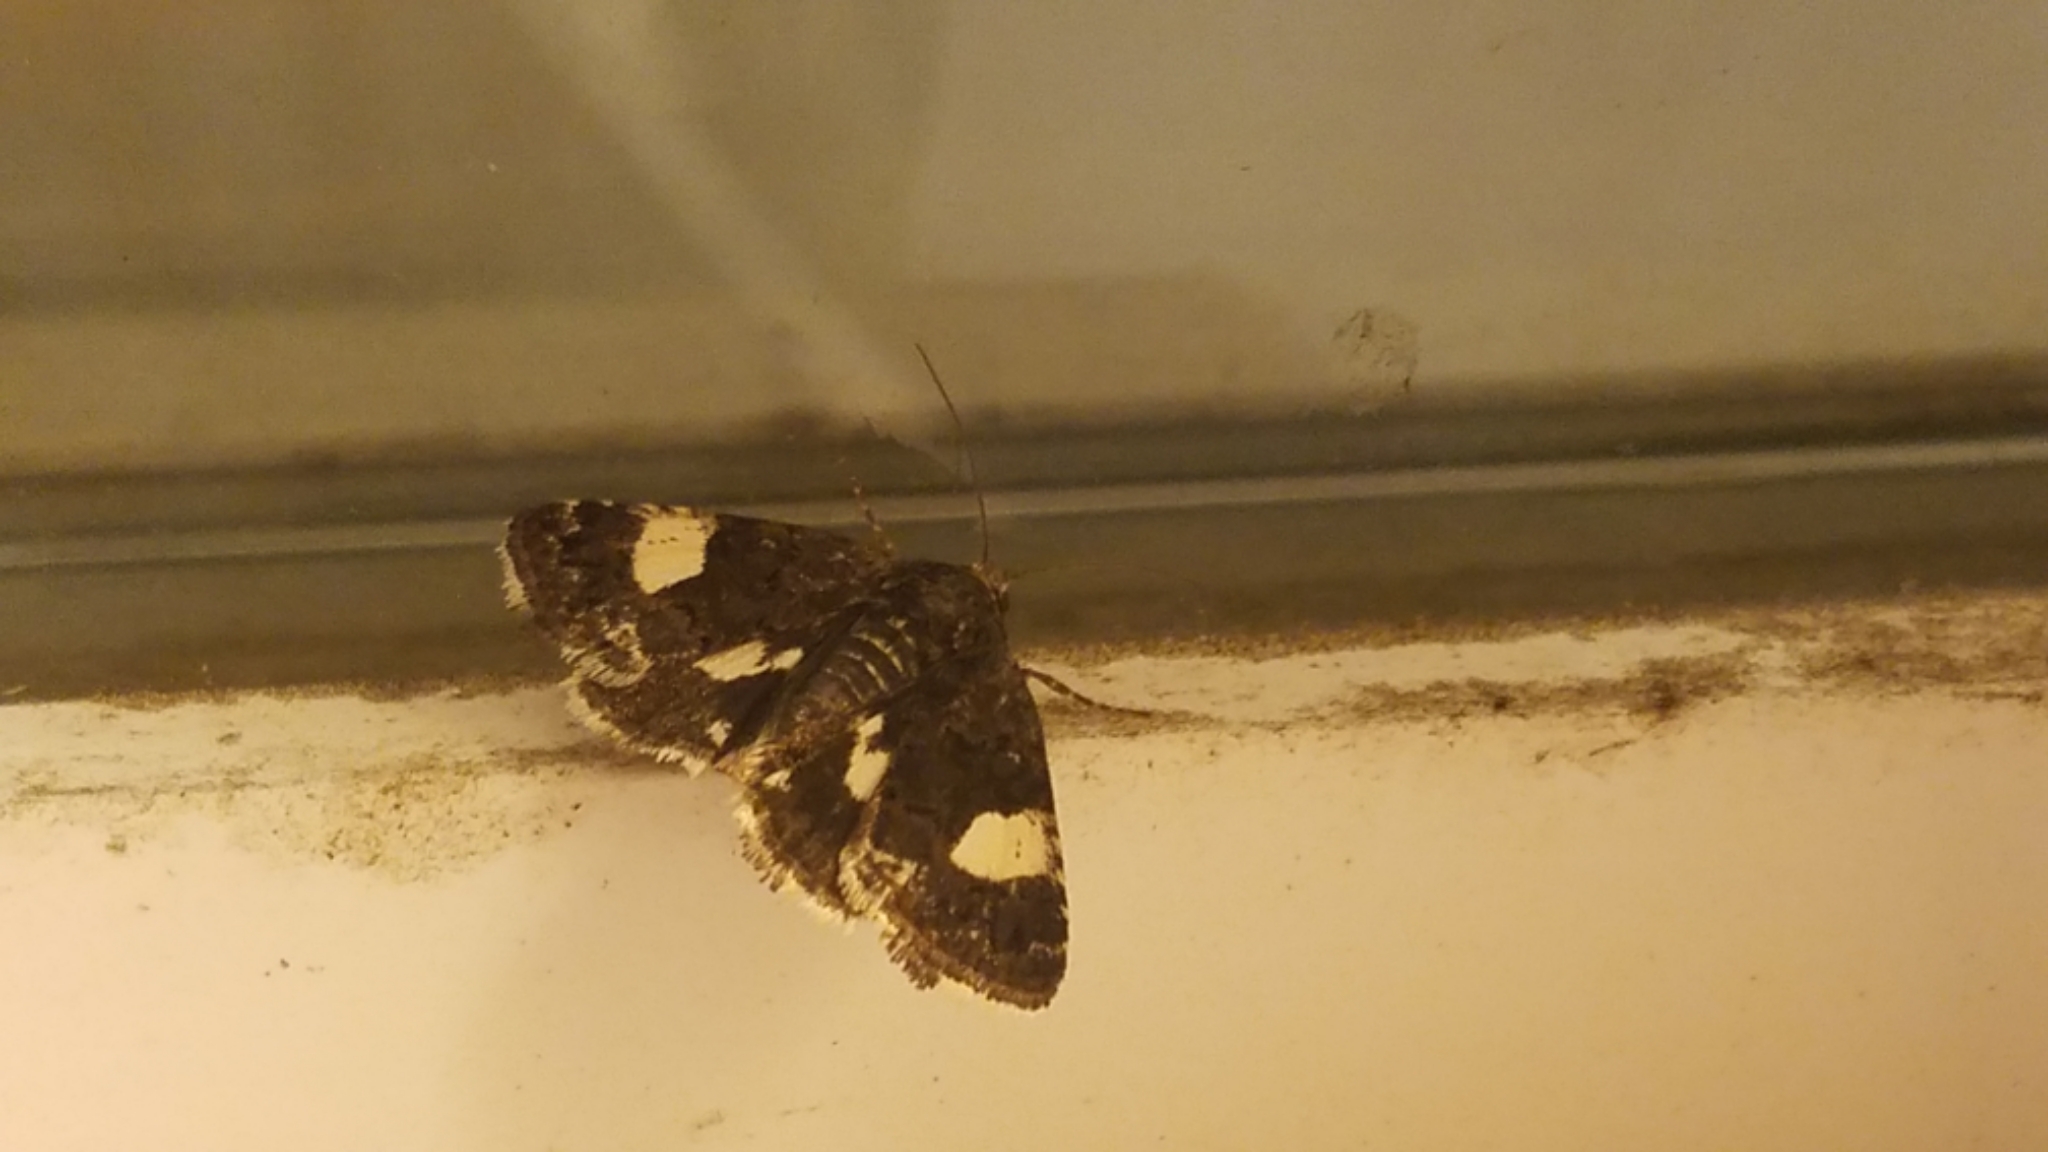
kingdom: Animalia
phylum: Arthropoda
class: Insecta
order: Lepidoptera
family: Erebidae
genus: Tyta
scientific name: Tyta luctuosa
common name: Four-spotted
